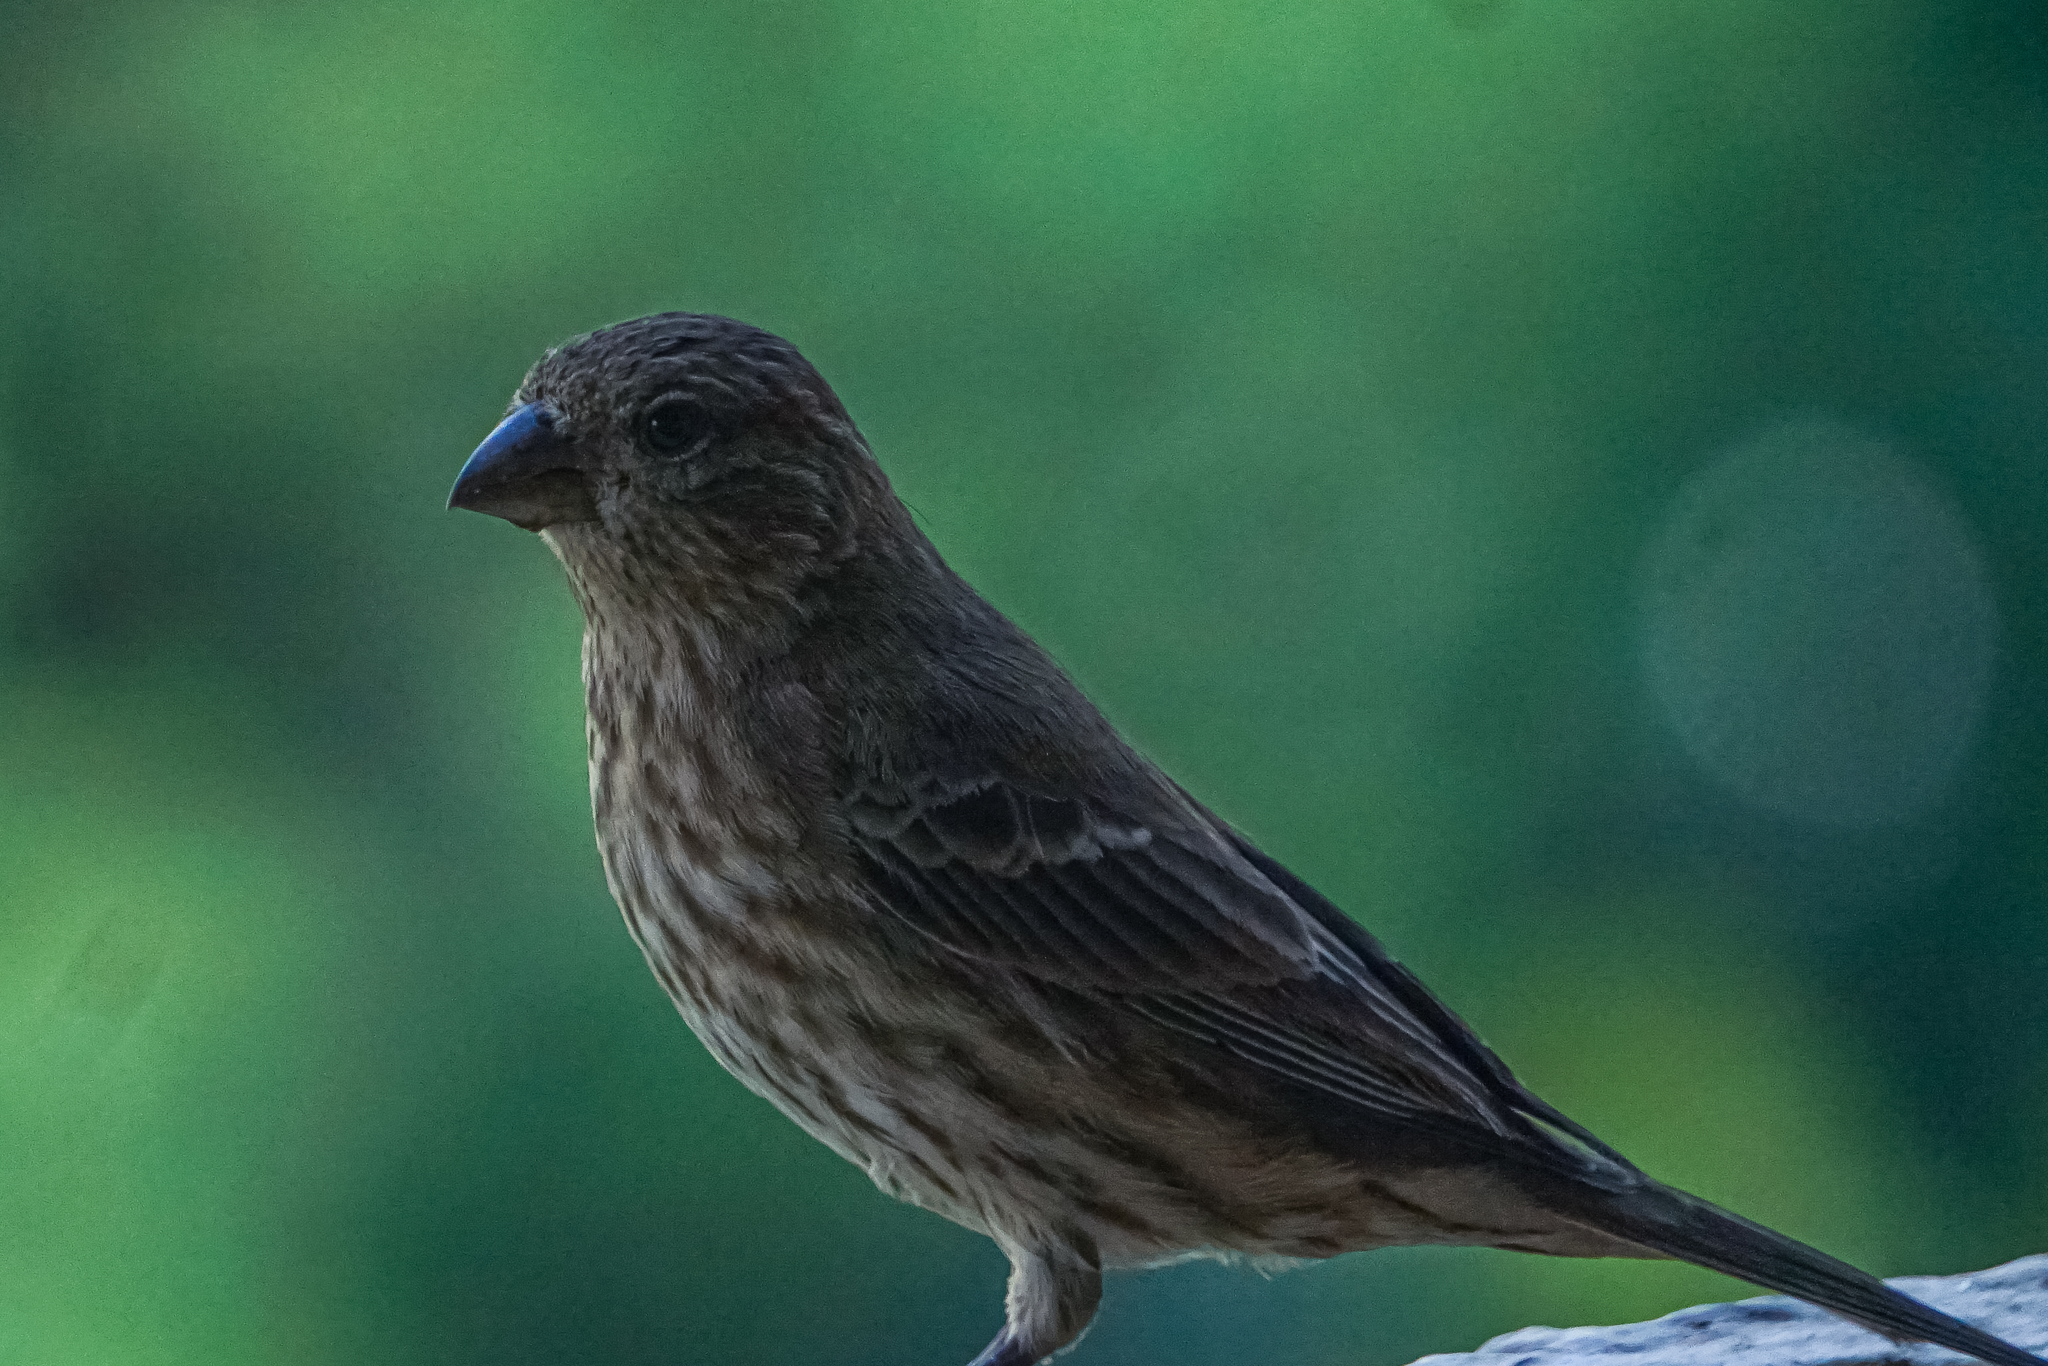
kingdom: Animalia
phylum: Chordata
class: Aves
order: Passeriformes
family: Fringillidae
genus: Haemorhous
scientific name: Haemorhous mexicanus
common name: House finch
